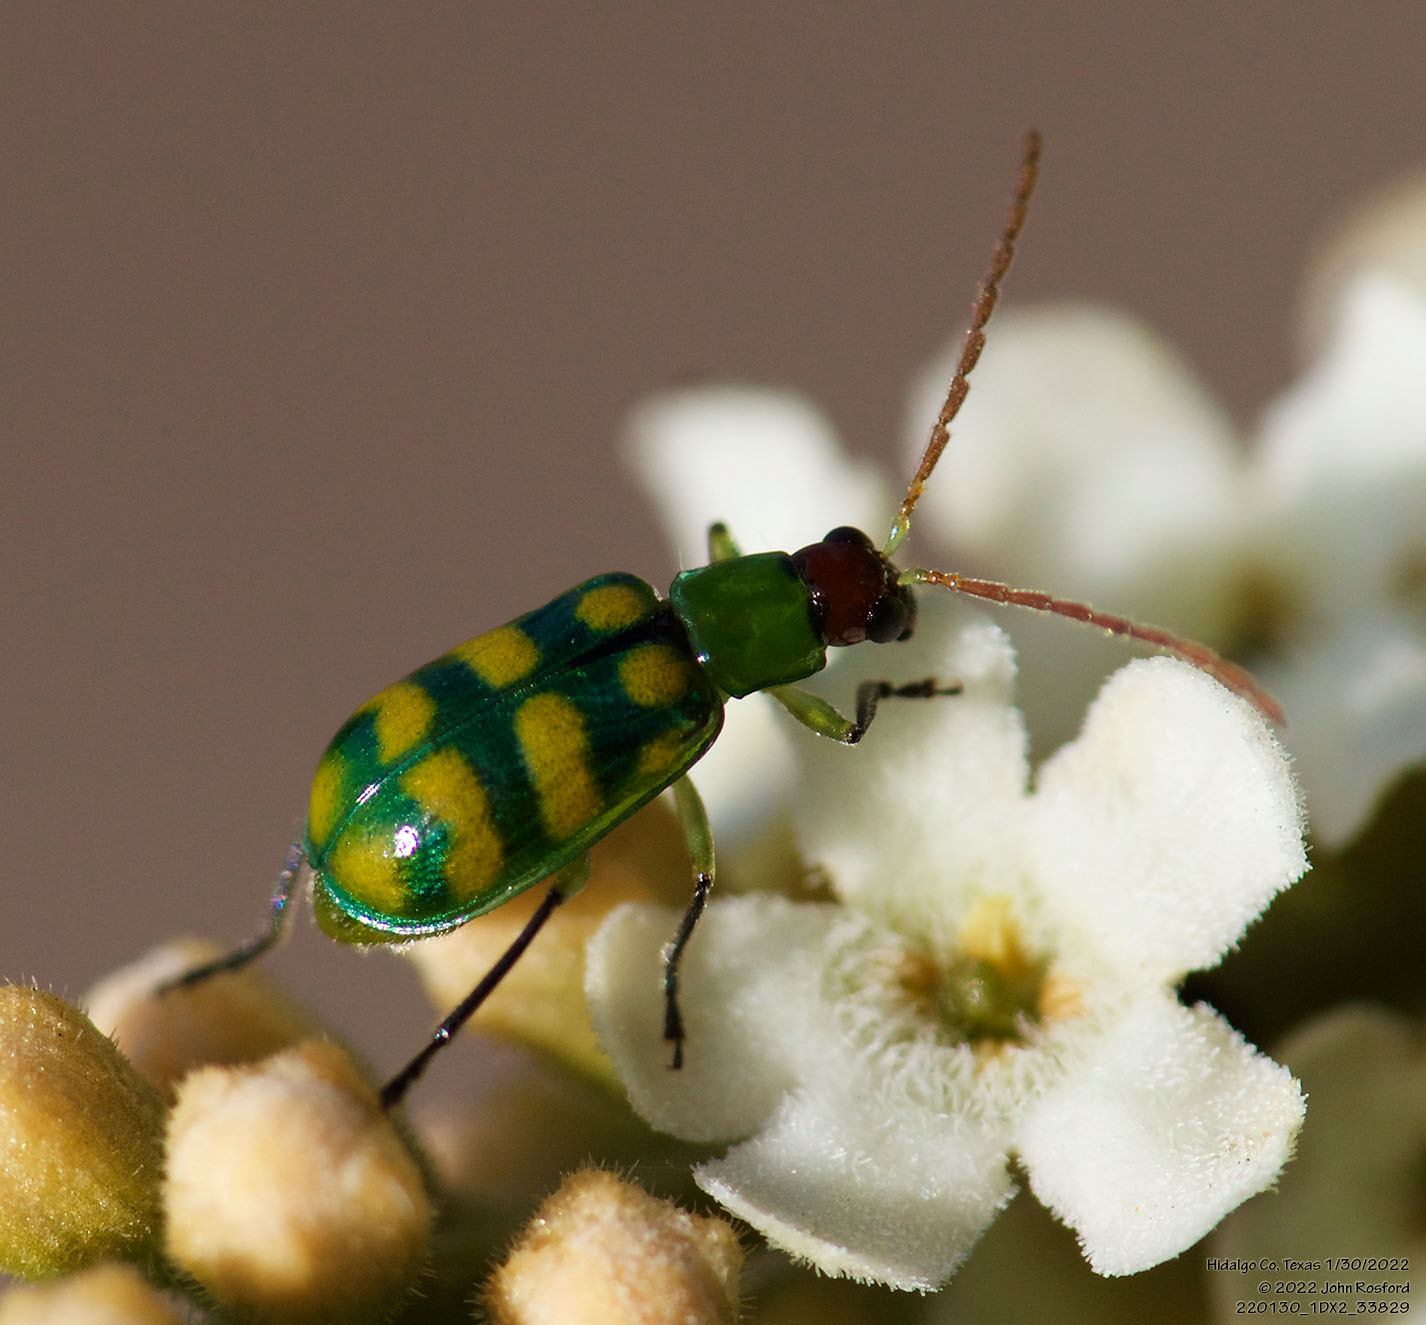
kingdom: Animalia
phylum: Arthropoda
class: Insecta
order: Coleoptera
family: Chrysomelidae
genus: Diabrotica
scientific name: Diabrotica balteata
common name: Leaf beetle
